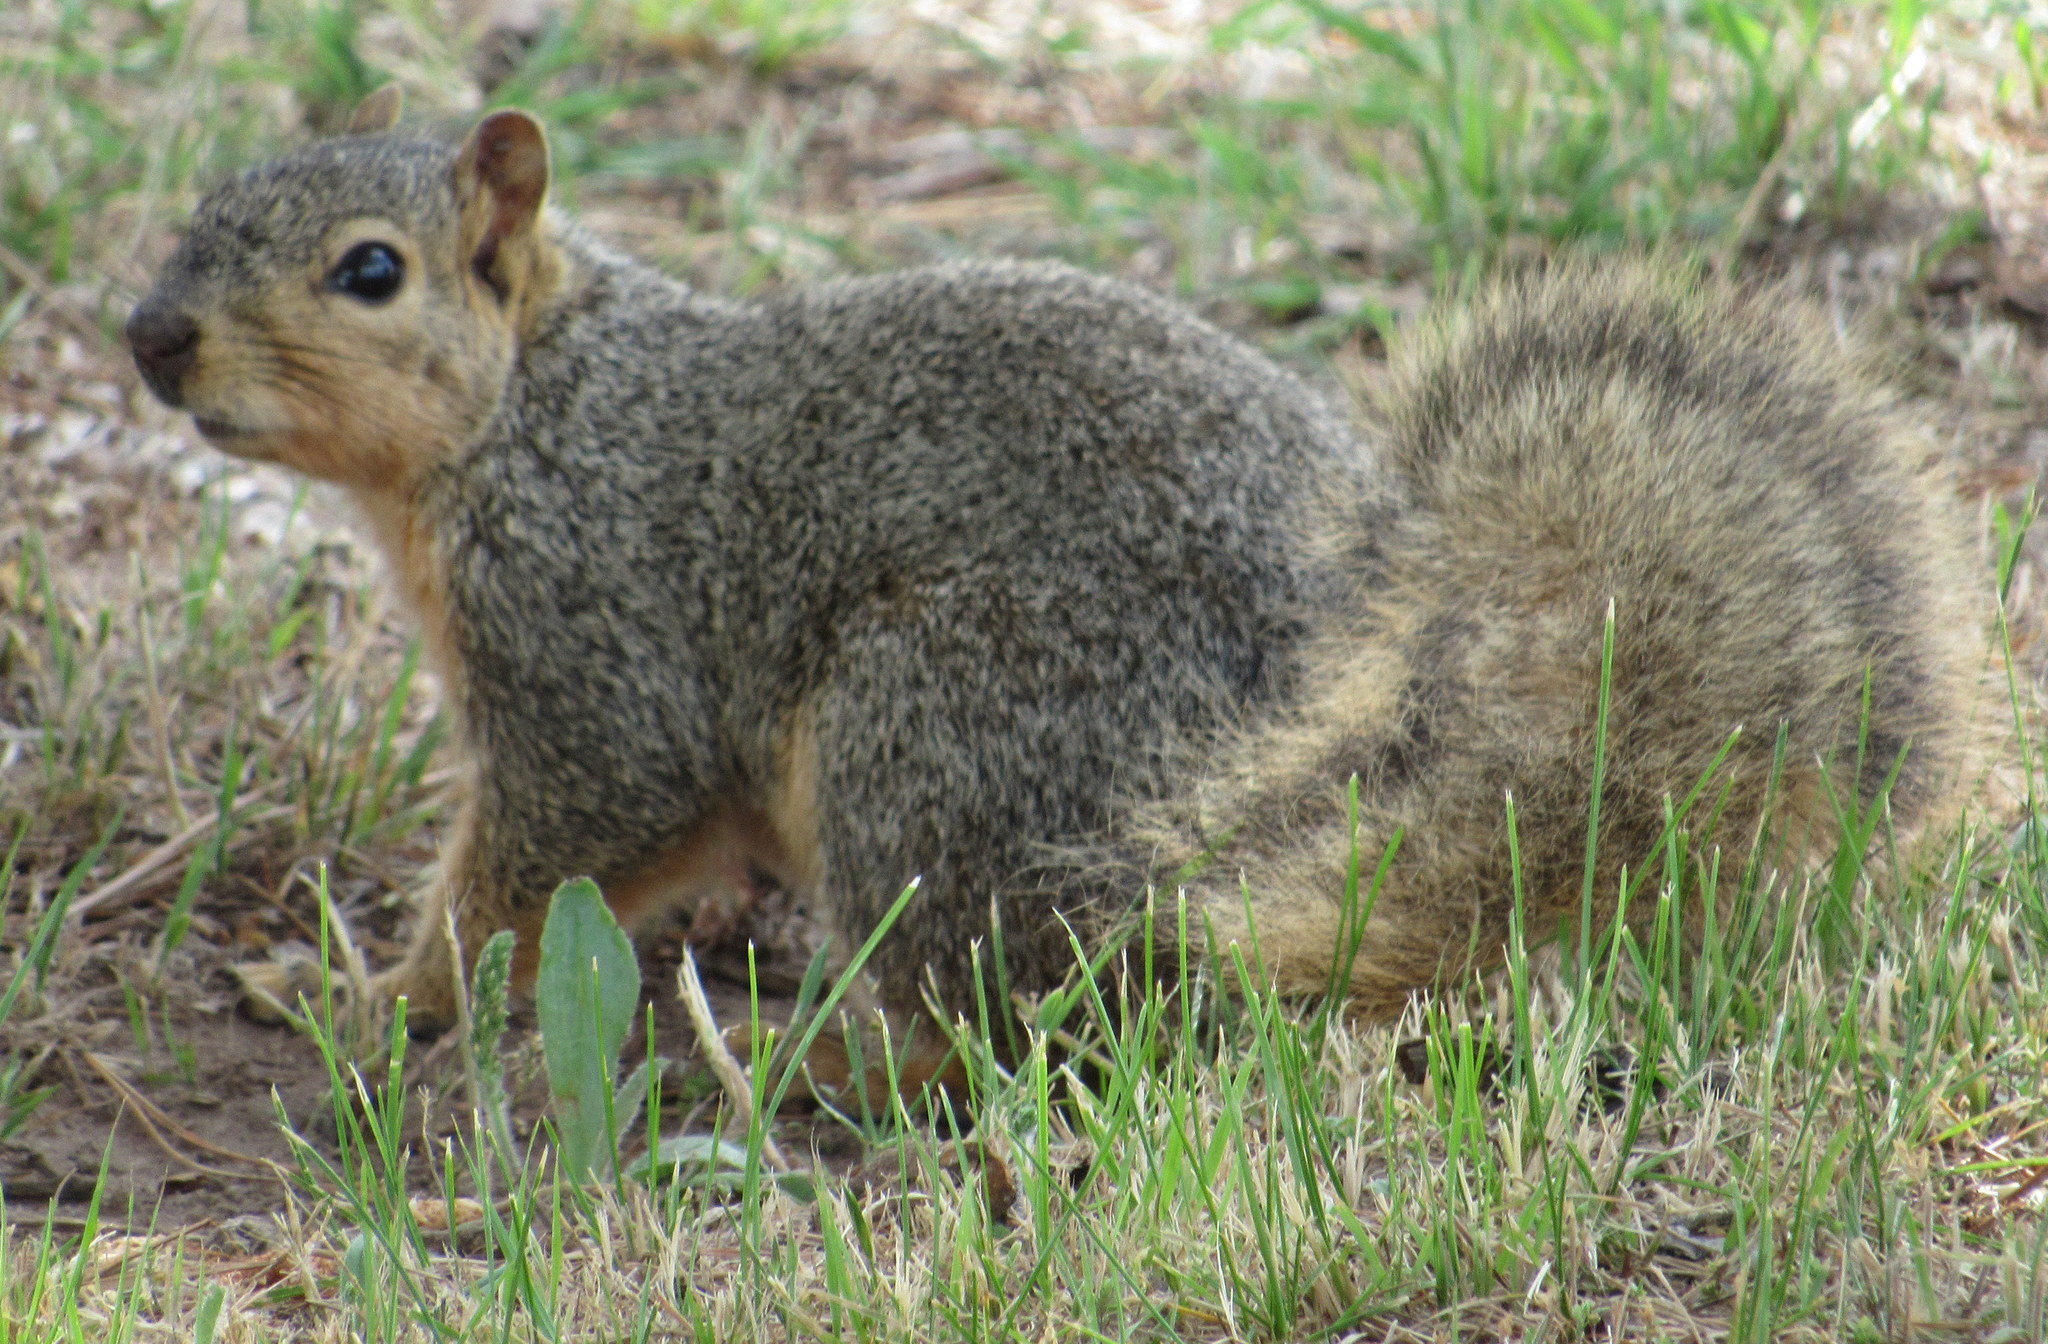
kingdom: Animalia
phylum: Chordata
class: Mammalia
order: Rodentia
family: Sciuridae
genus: Sciurus
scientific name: Sciurus niger
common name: Fox squirrel
